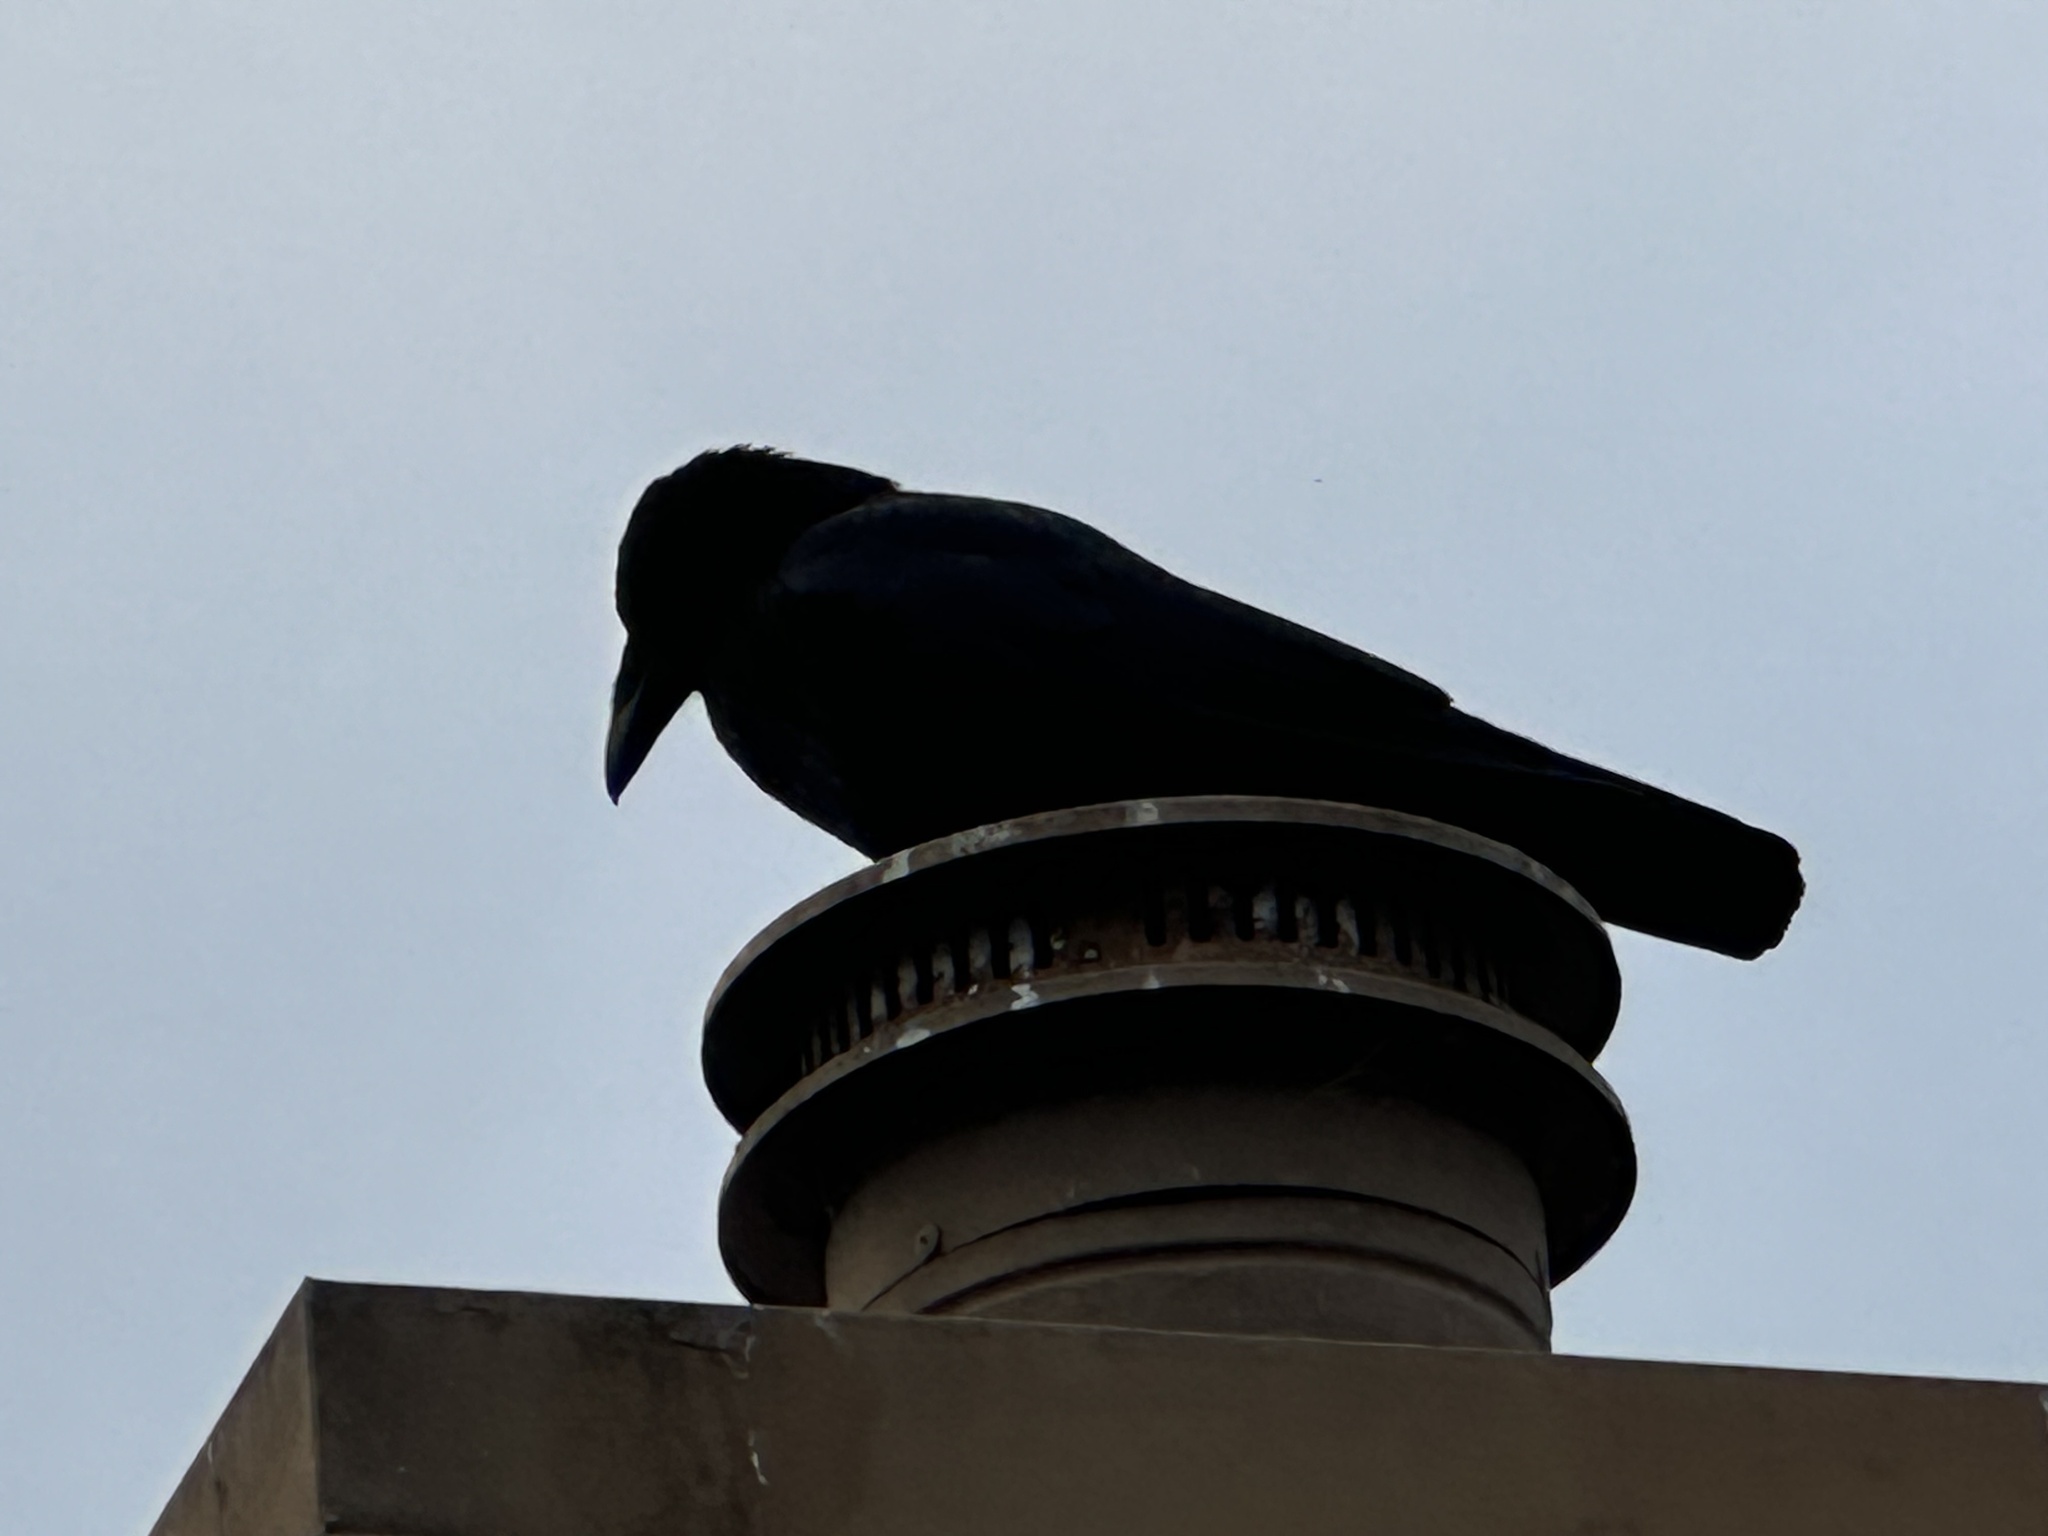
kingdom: Animalia
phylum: Chordata
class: Aves
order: Passeriformes
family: Corvidae
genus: Corvus
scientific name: Corvus brachyrhynchos
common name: American crow
